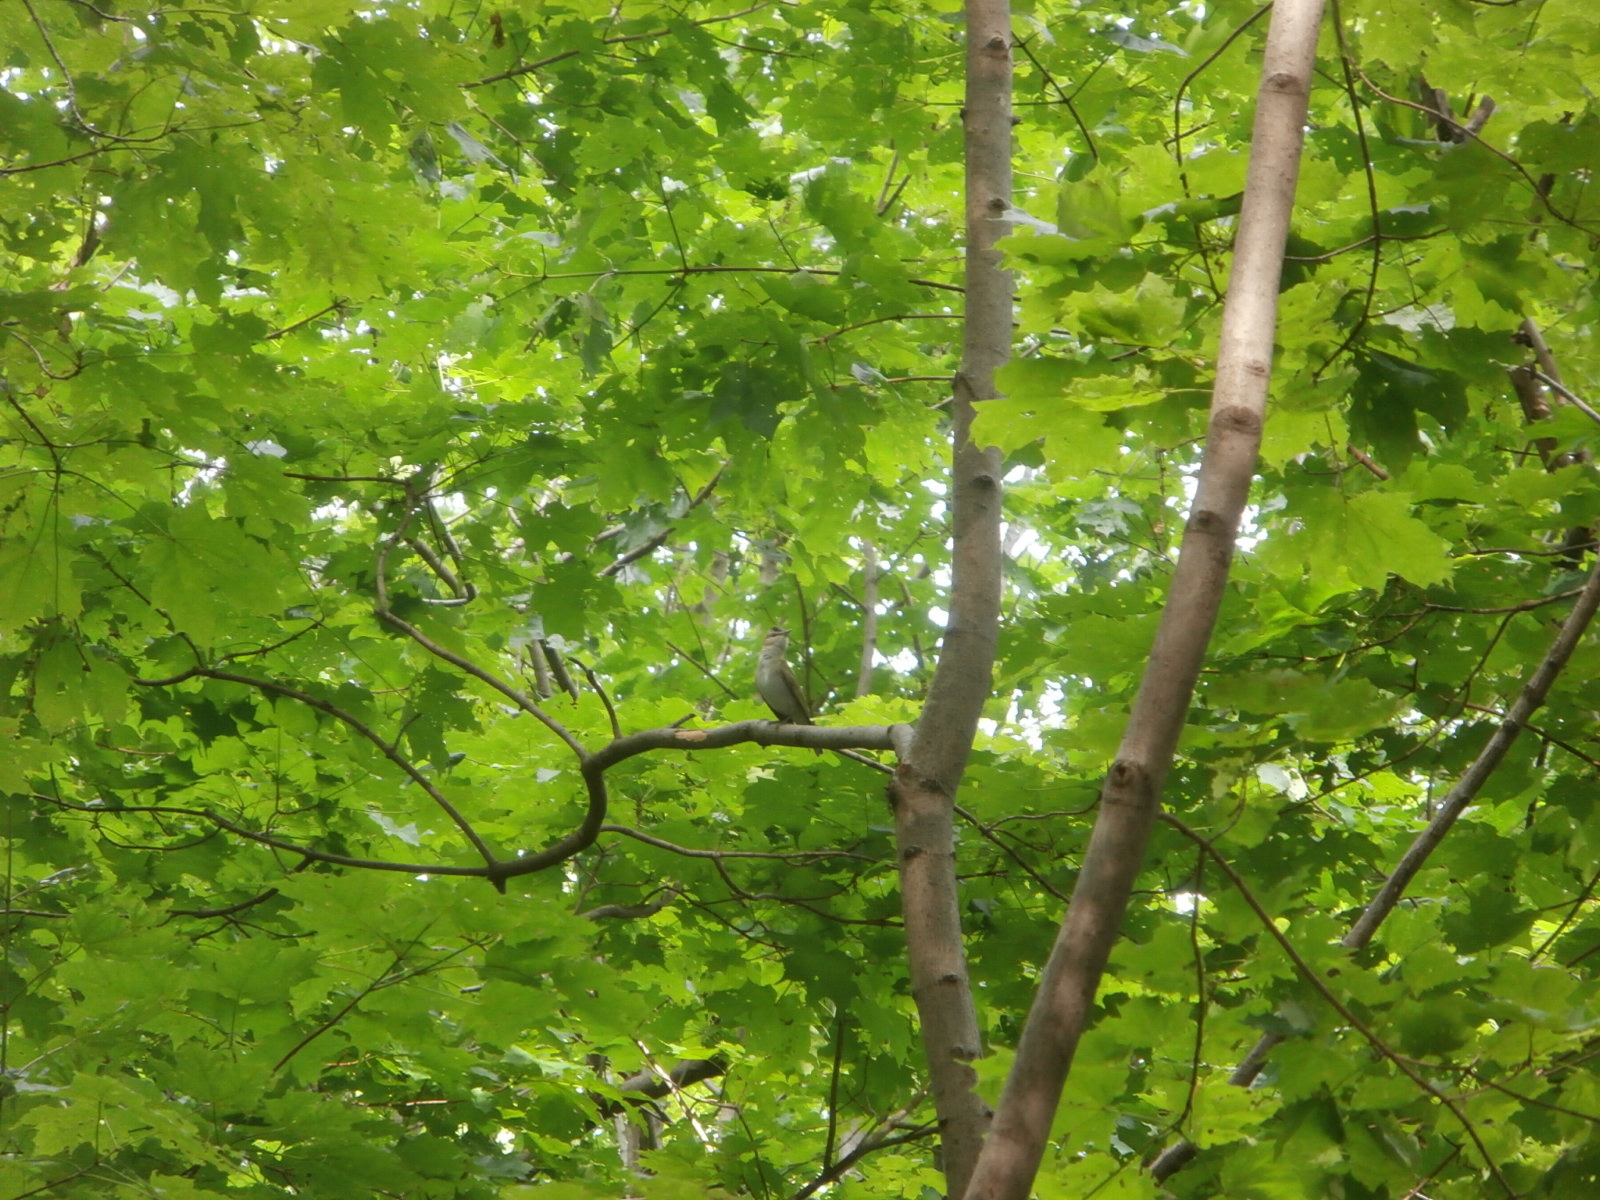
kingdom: Animalia
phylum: Chordata
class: Aves
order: Passeriformes
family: Vireonidae
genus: Vireo
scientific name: Vireo olivaceus
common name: Red-eyed vireo
